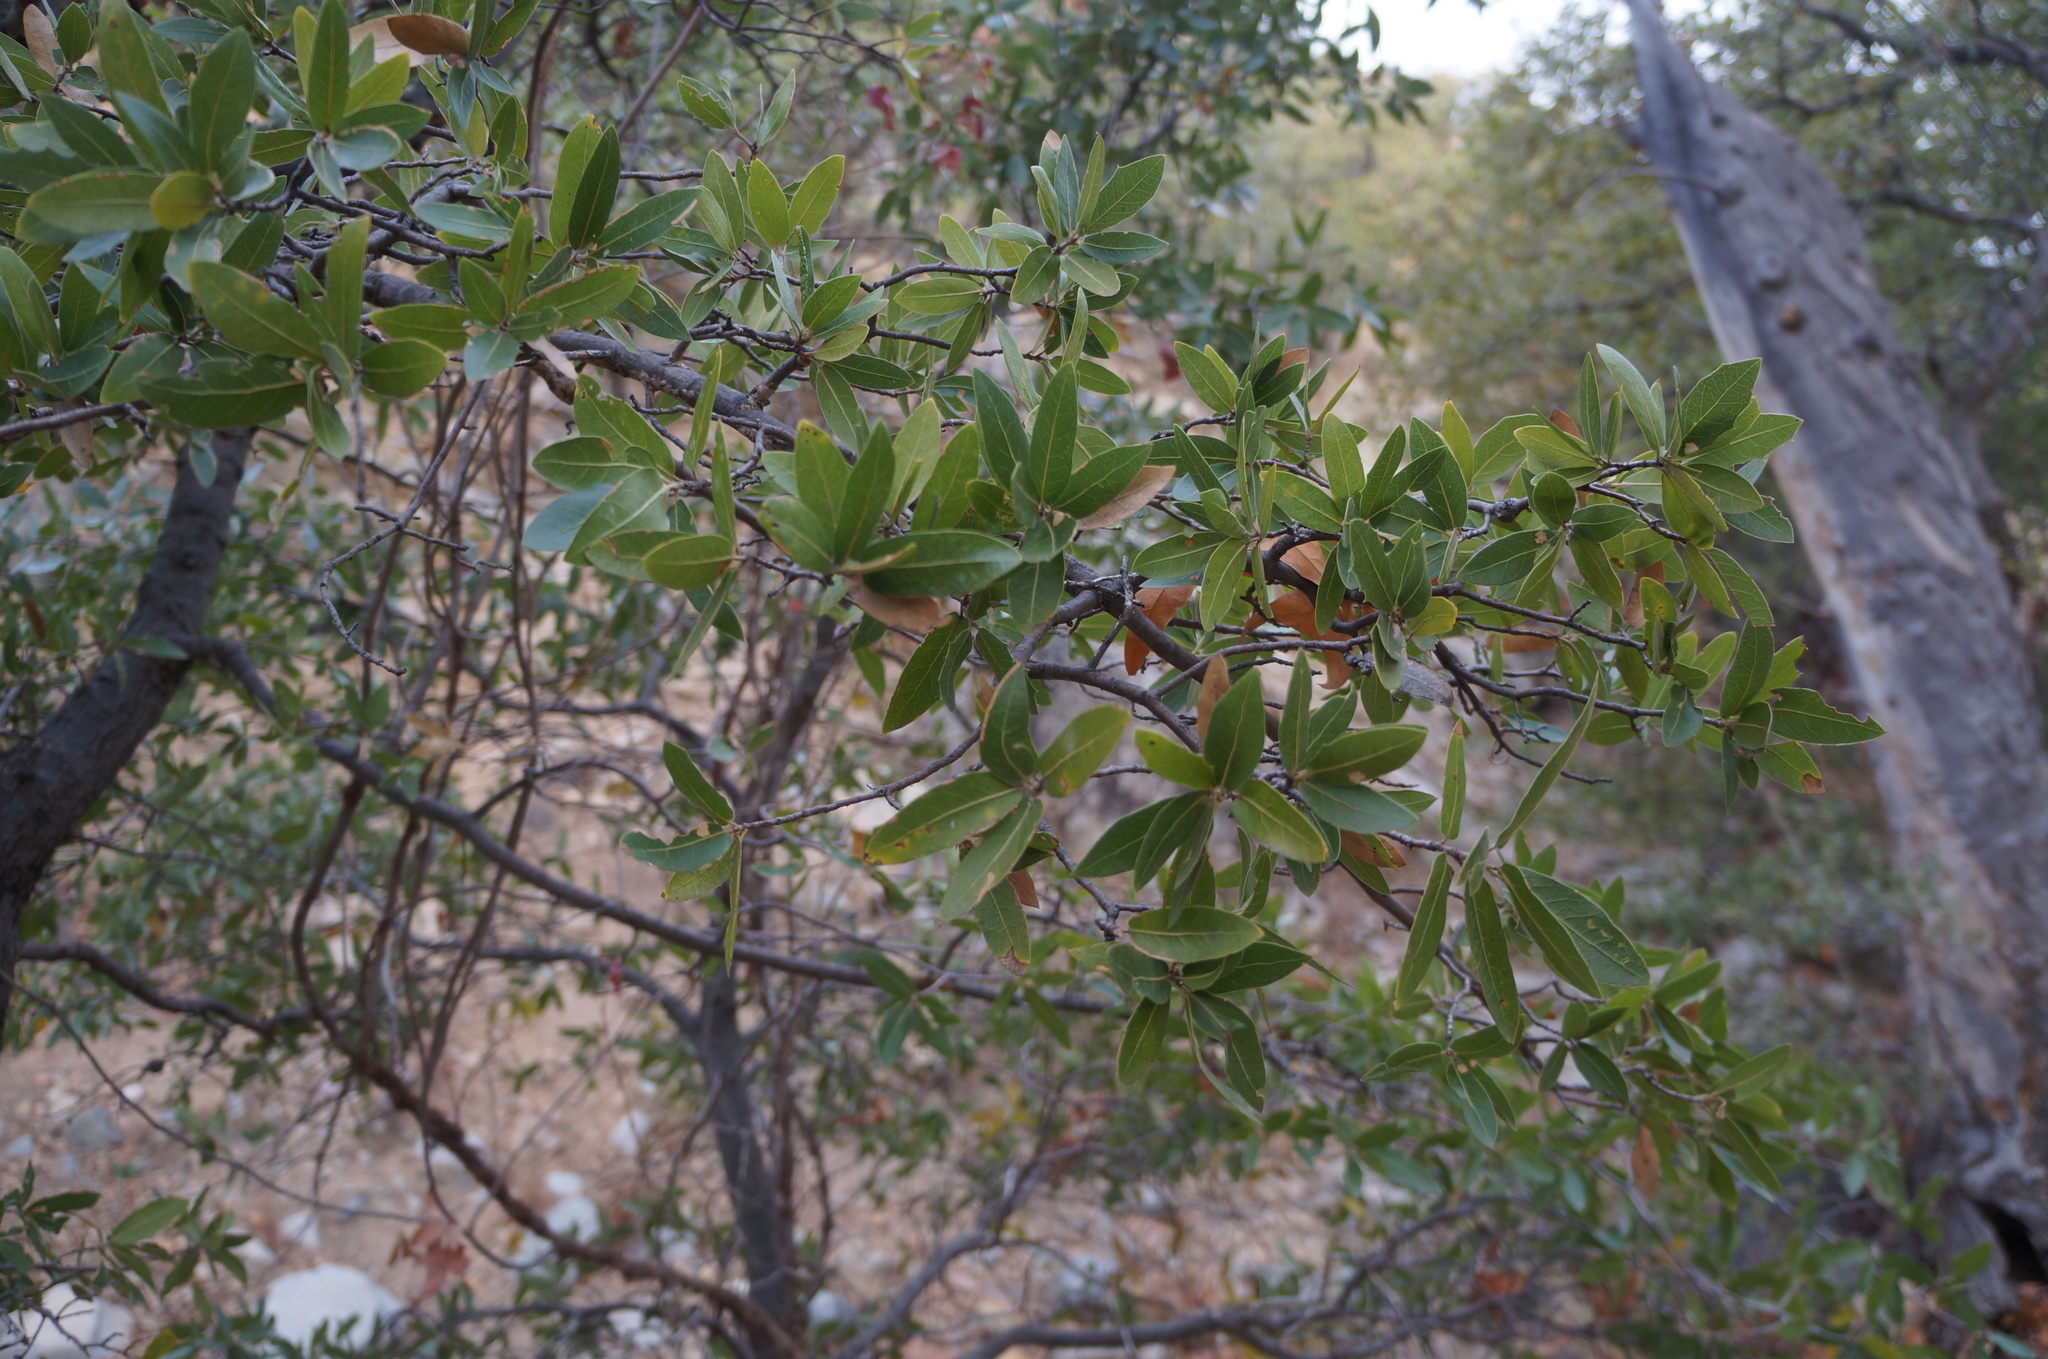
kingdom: Plantae
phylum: Tracheophyta
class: Magnoliopsida
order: Fagales
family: Fagaceae
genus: Quercus
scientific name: Quercus emoryi
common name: Emory oak
